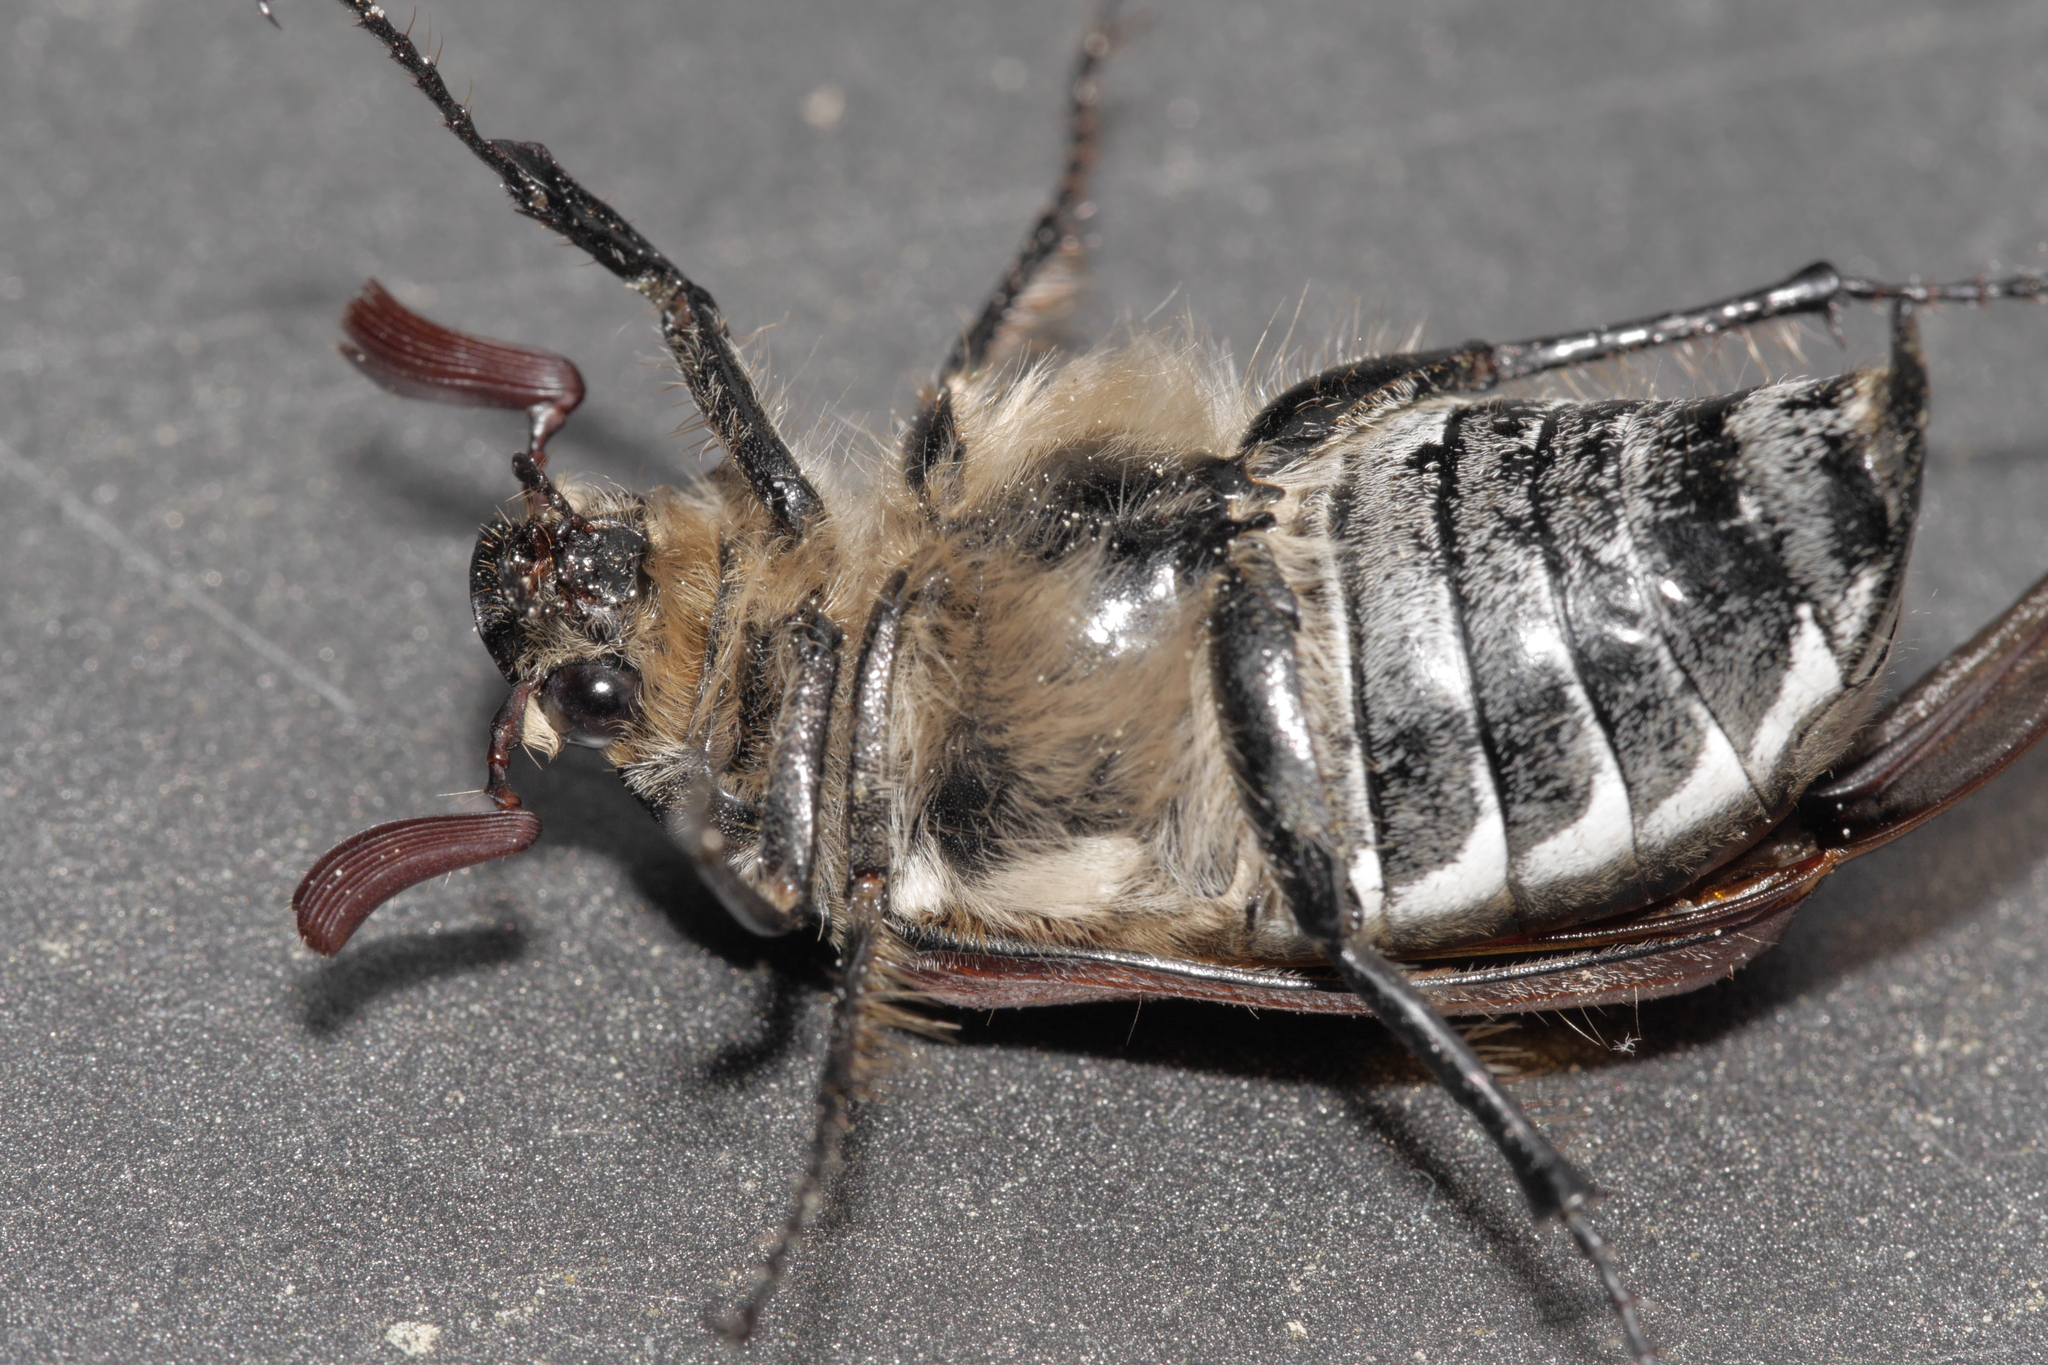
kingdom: Animalia
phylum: Arthropoda
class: Insecta
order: Coleoptera
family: Scarabaeidae
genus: Melolontha
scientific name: Melolontha hippocastani
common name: Chestnut cockchafer
